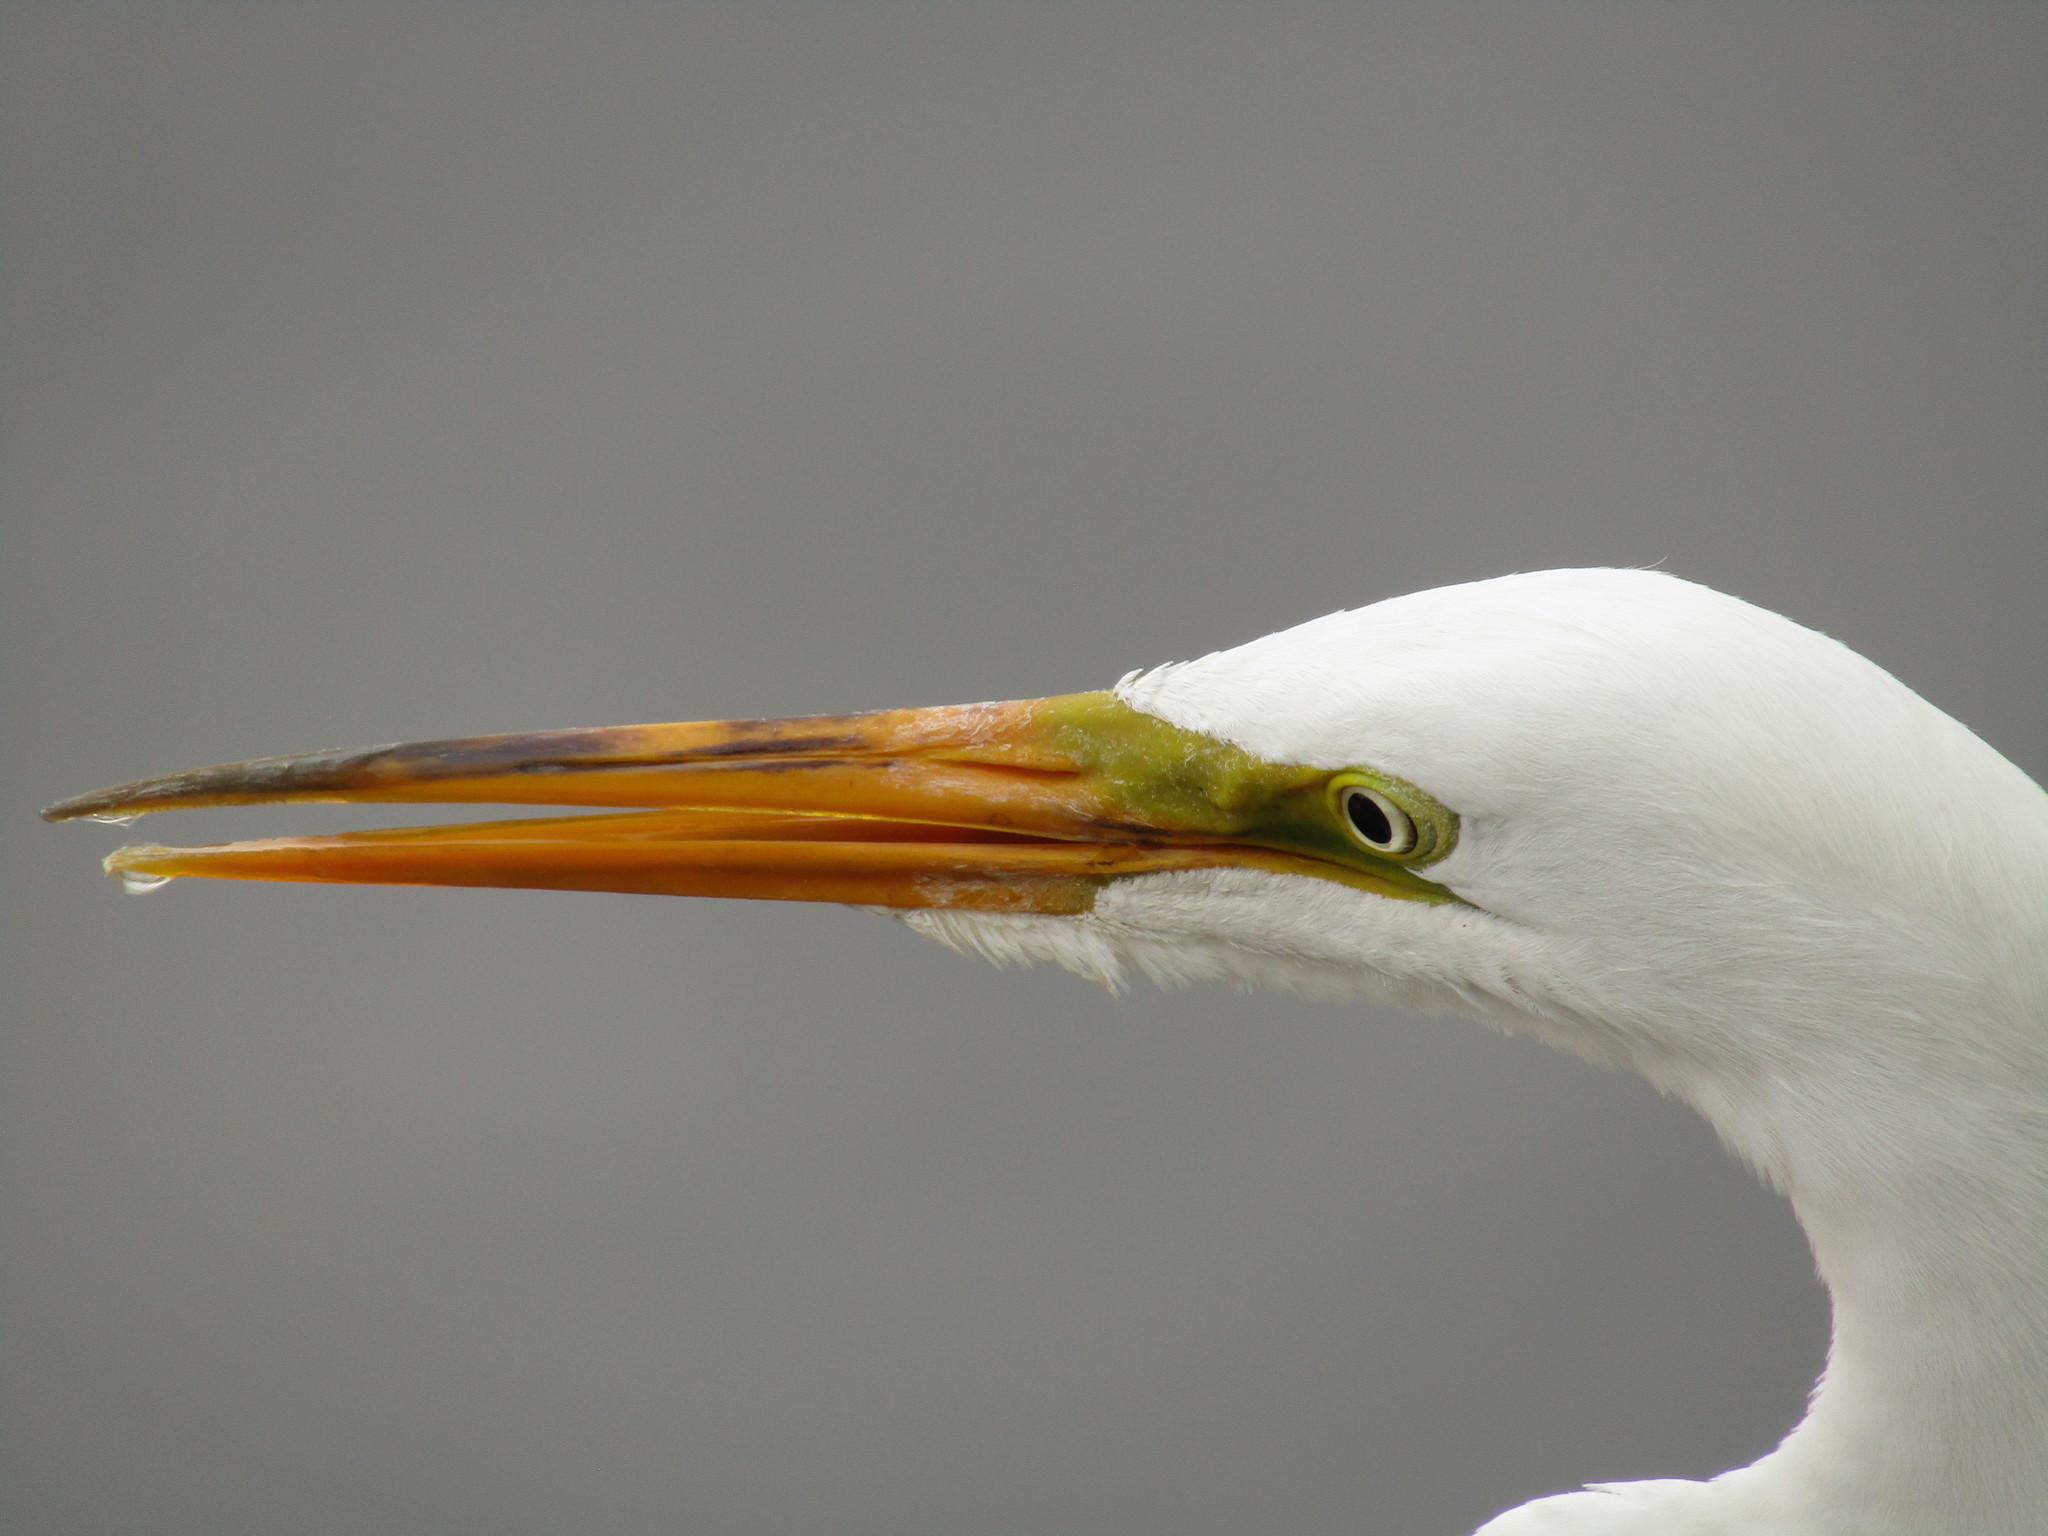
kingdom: Animalia
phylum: Chordata
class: Aves
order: Pelecaniformes
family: Ardeidae
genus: Ardea
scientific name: Ardea alba
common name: Great egret
